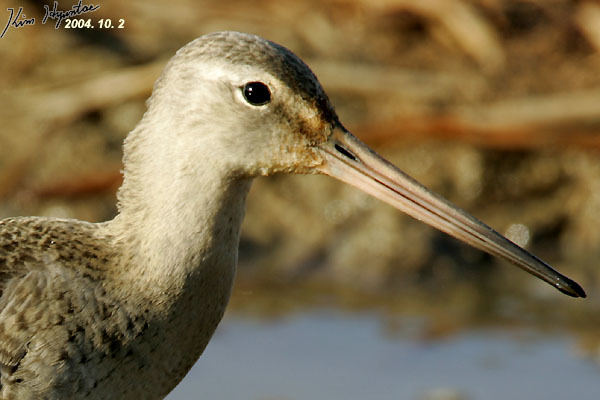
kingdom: Animalia
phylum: Chordata
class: Aves
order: Charadriiformes
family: Scolopacidae
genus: Limosa
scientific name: Limosa limosa
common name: Black-tailed godwit
